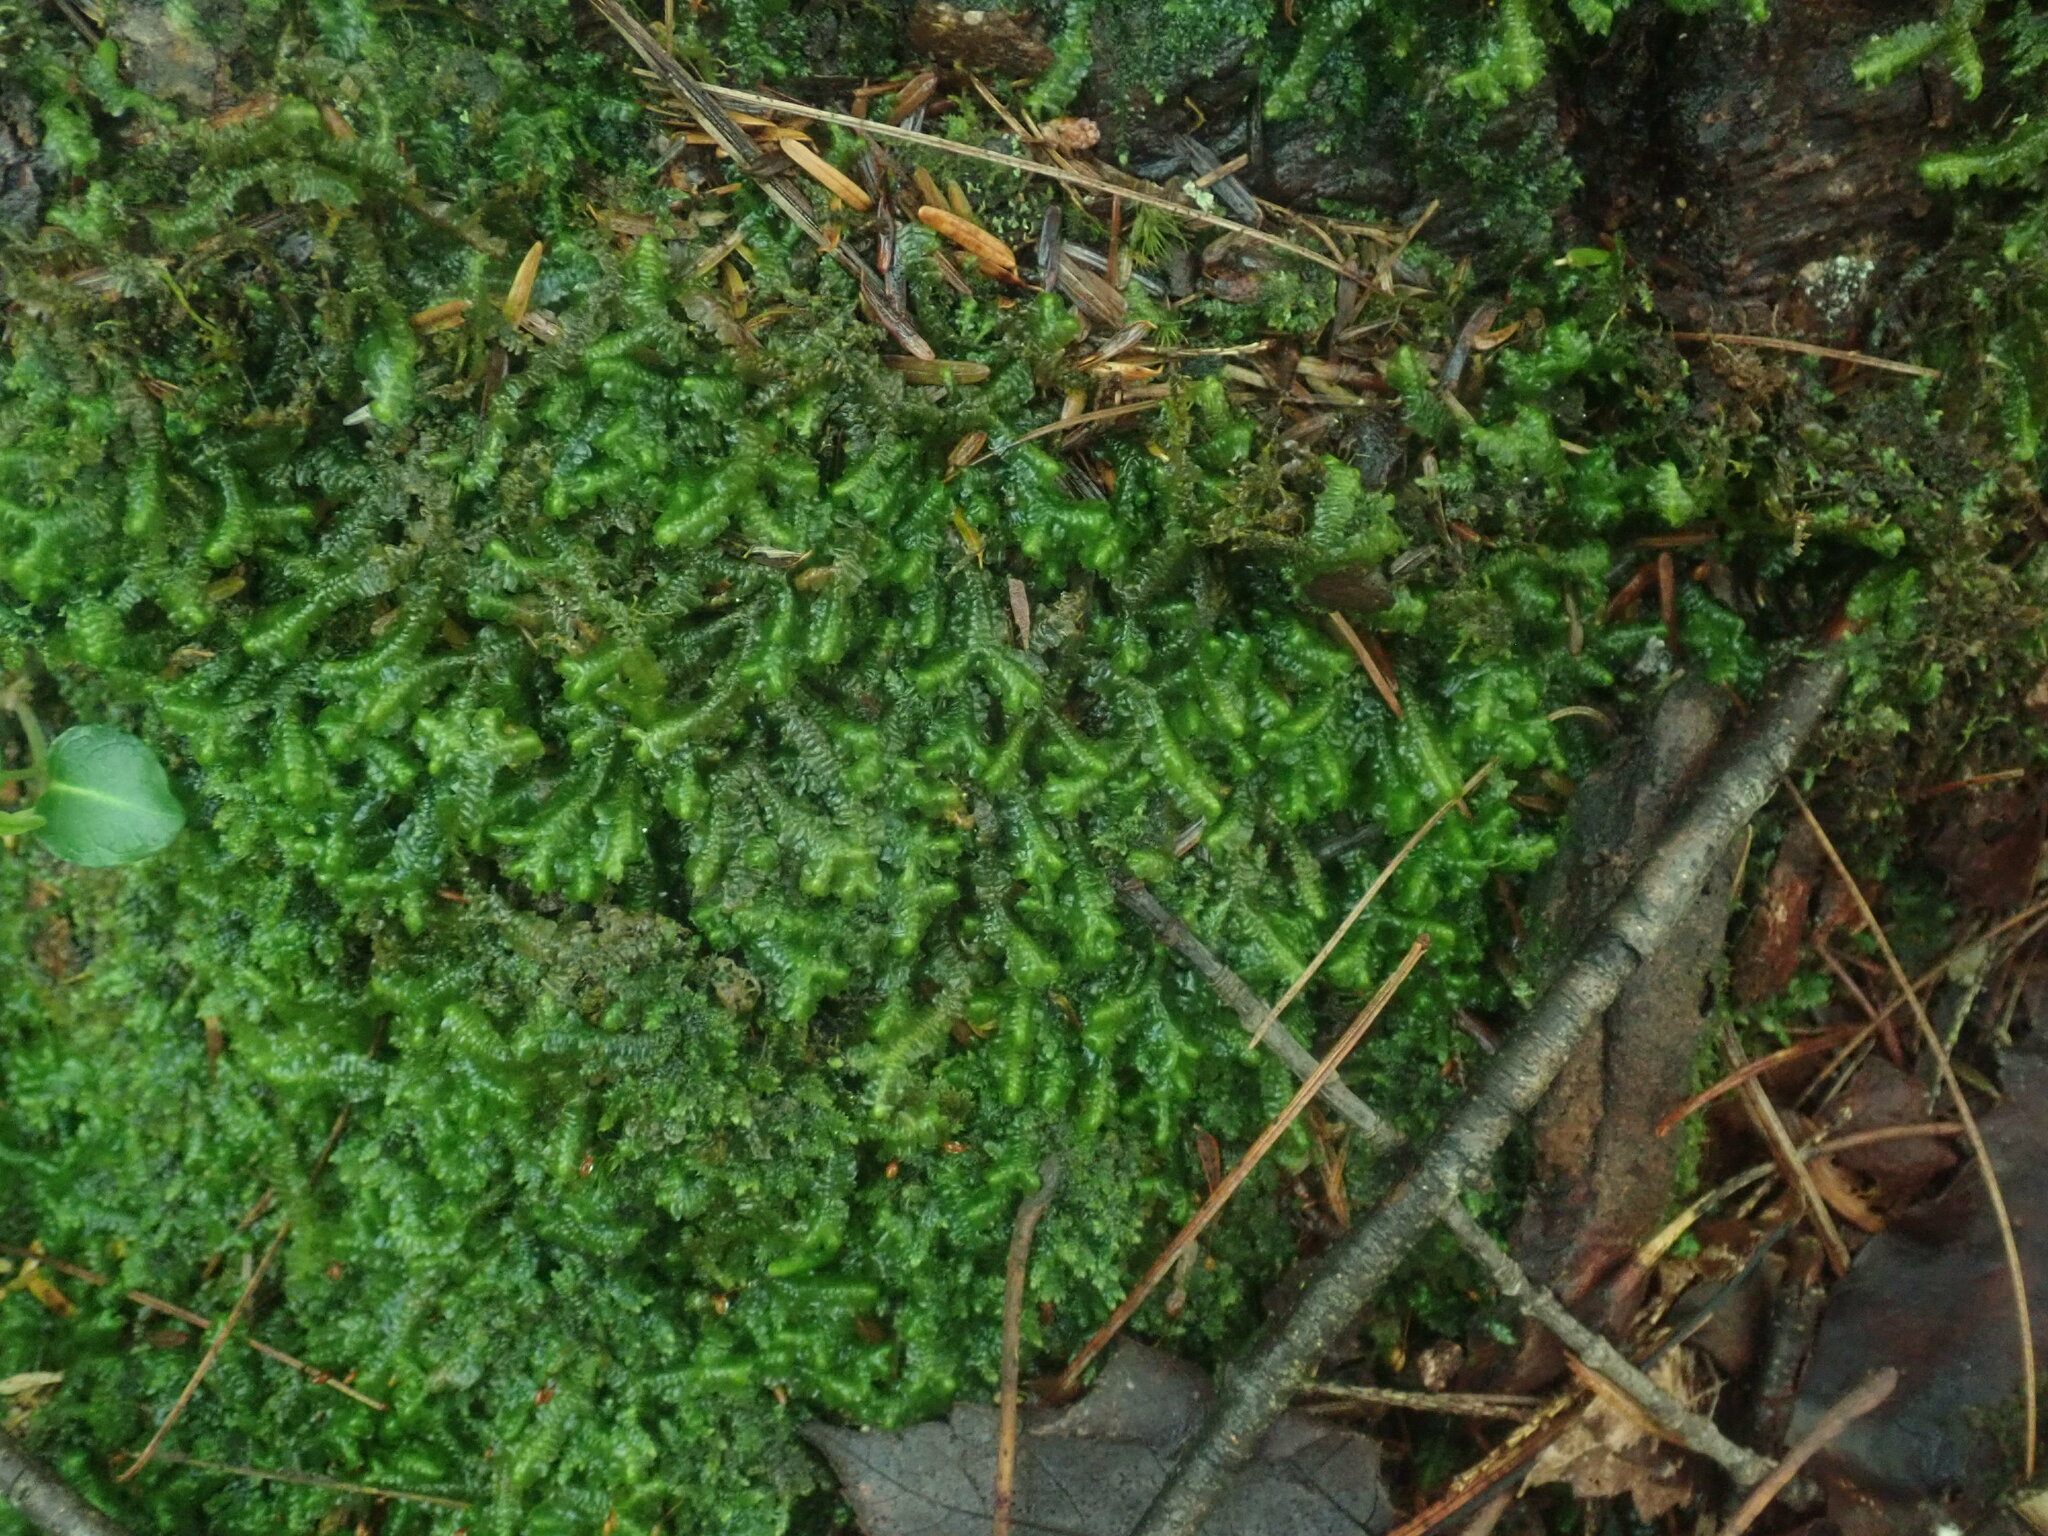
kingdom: Plantae
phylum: Marchantiophyta
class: Jungermanniopsida
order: Jungermanniales
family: Lepidoziaceae
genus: Bazzania
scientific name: Bazzania trilobata
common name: Three-lobed whipwort
